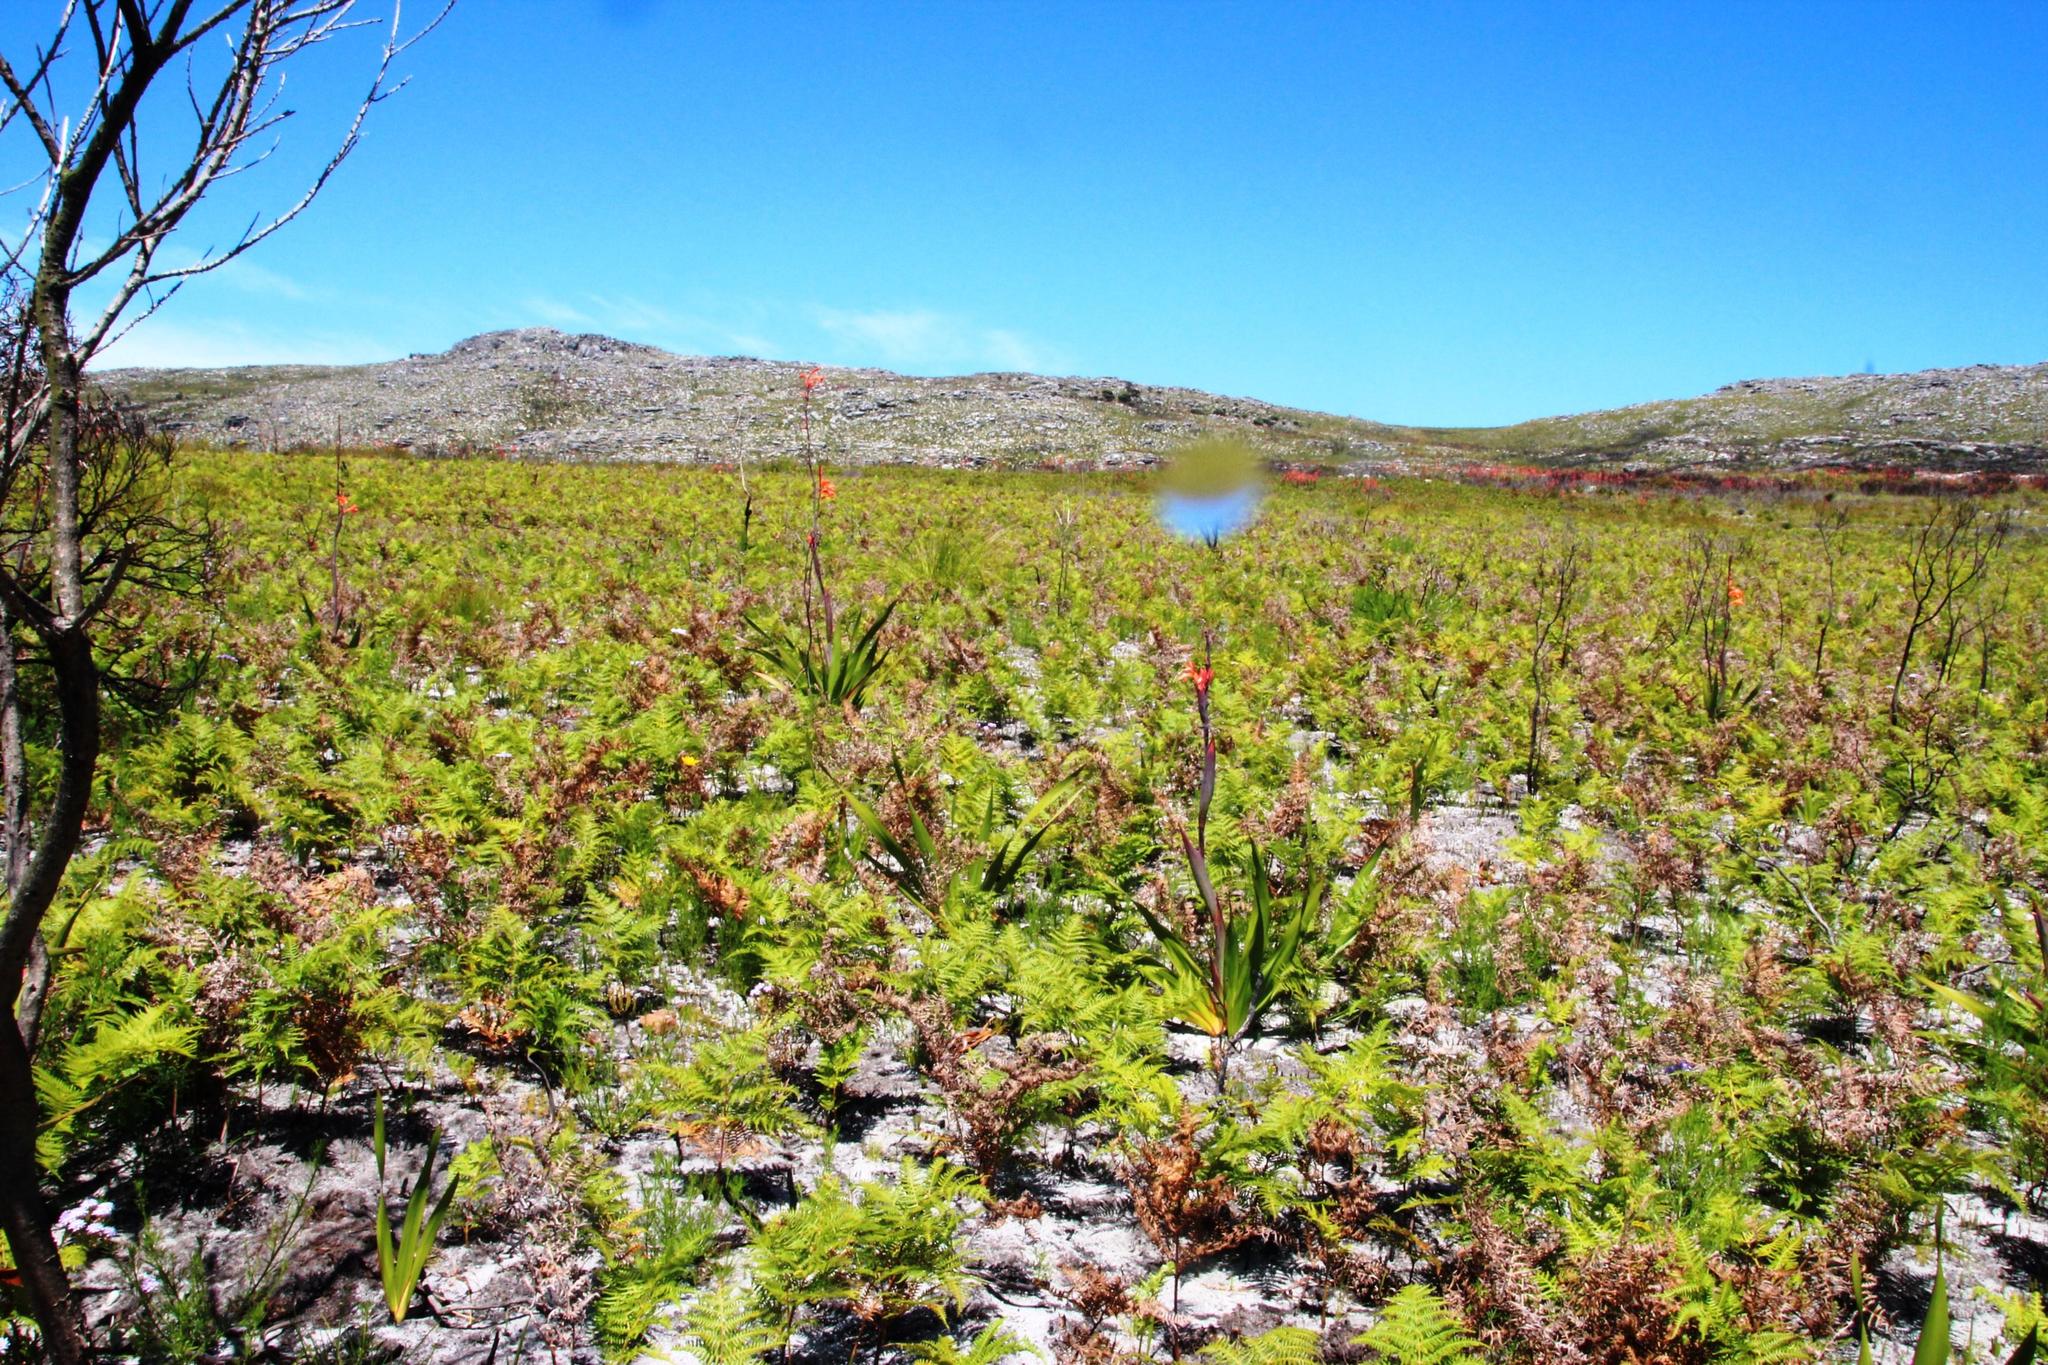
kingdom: Plantae
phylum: Tracheophyta
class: Polypodiopsida
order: Polypodiales
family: Dennstaedtiaceae
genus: Pteridium
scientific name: Pteridium aquilinum
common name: Bracken
